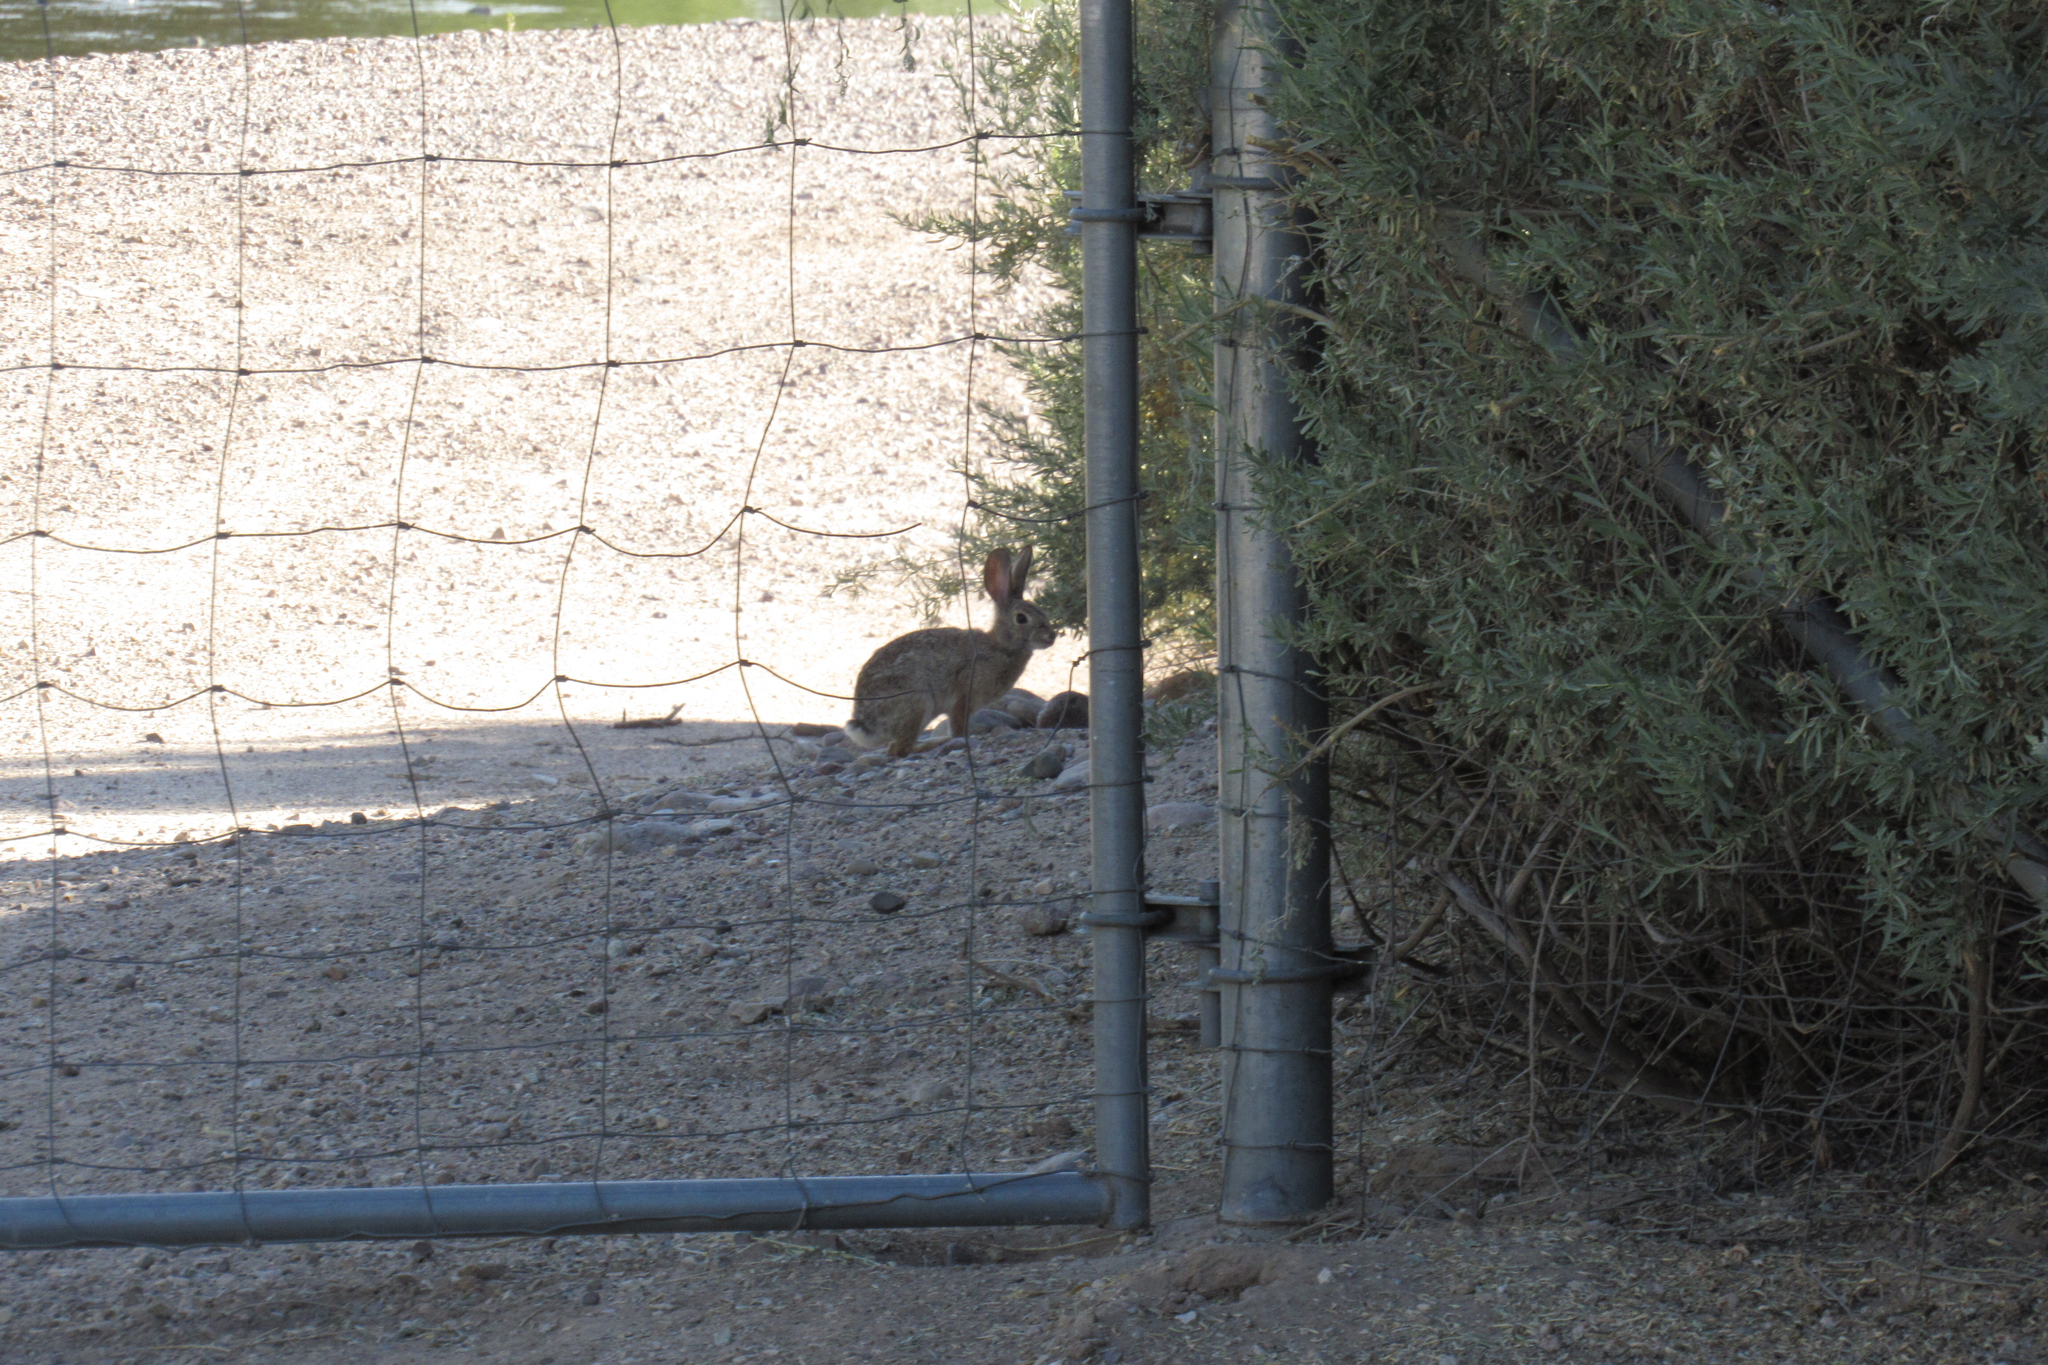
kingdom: Animalia
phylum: Chordata
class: Mammalia
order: Lagomorpha
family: Leporidae
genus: Sylvilagus
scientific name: Sylvilagus audubonii
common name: Desert cottontail
